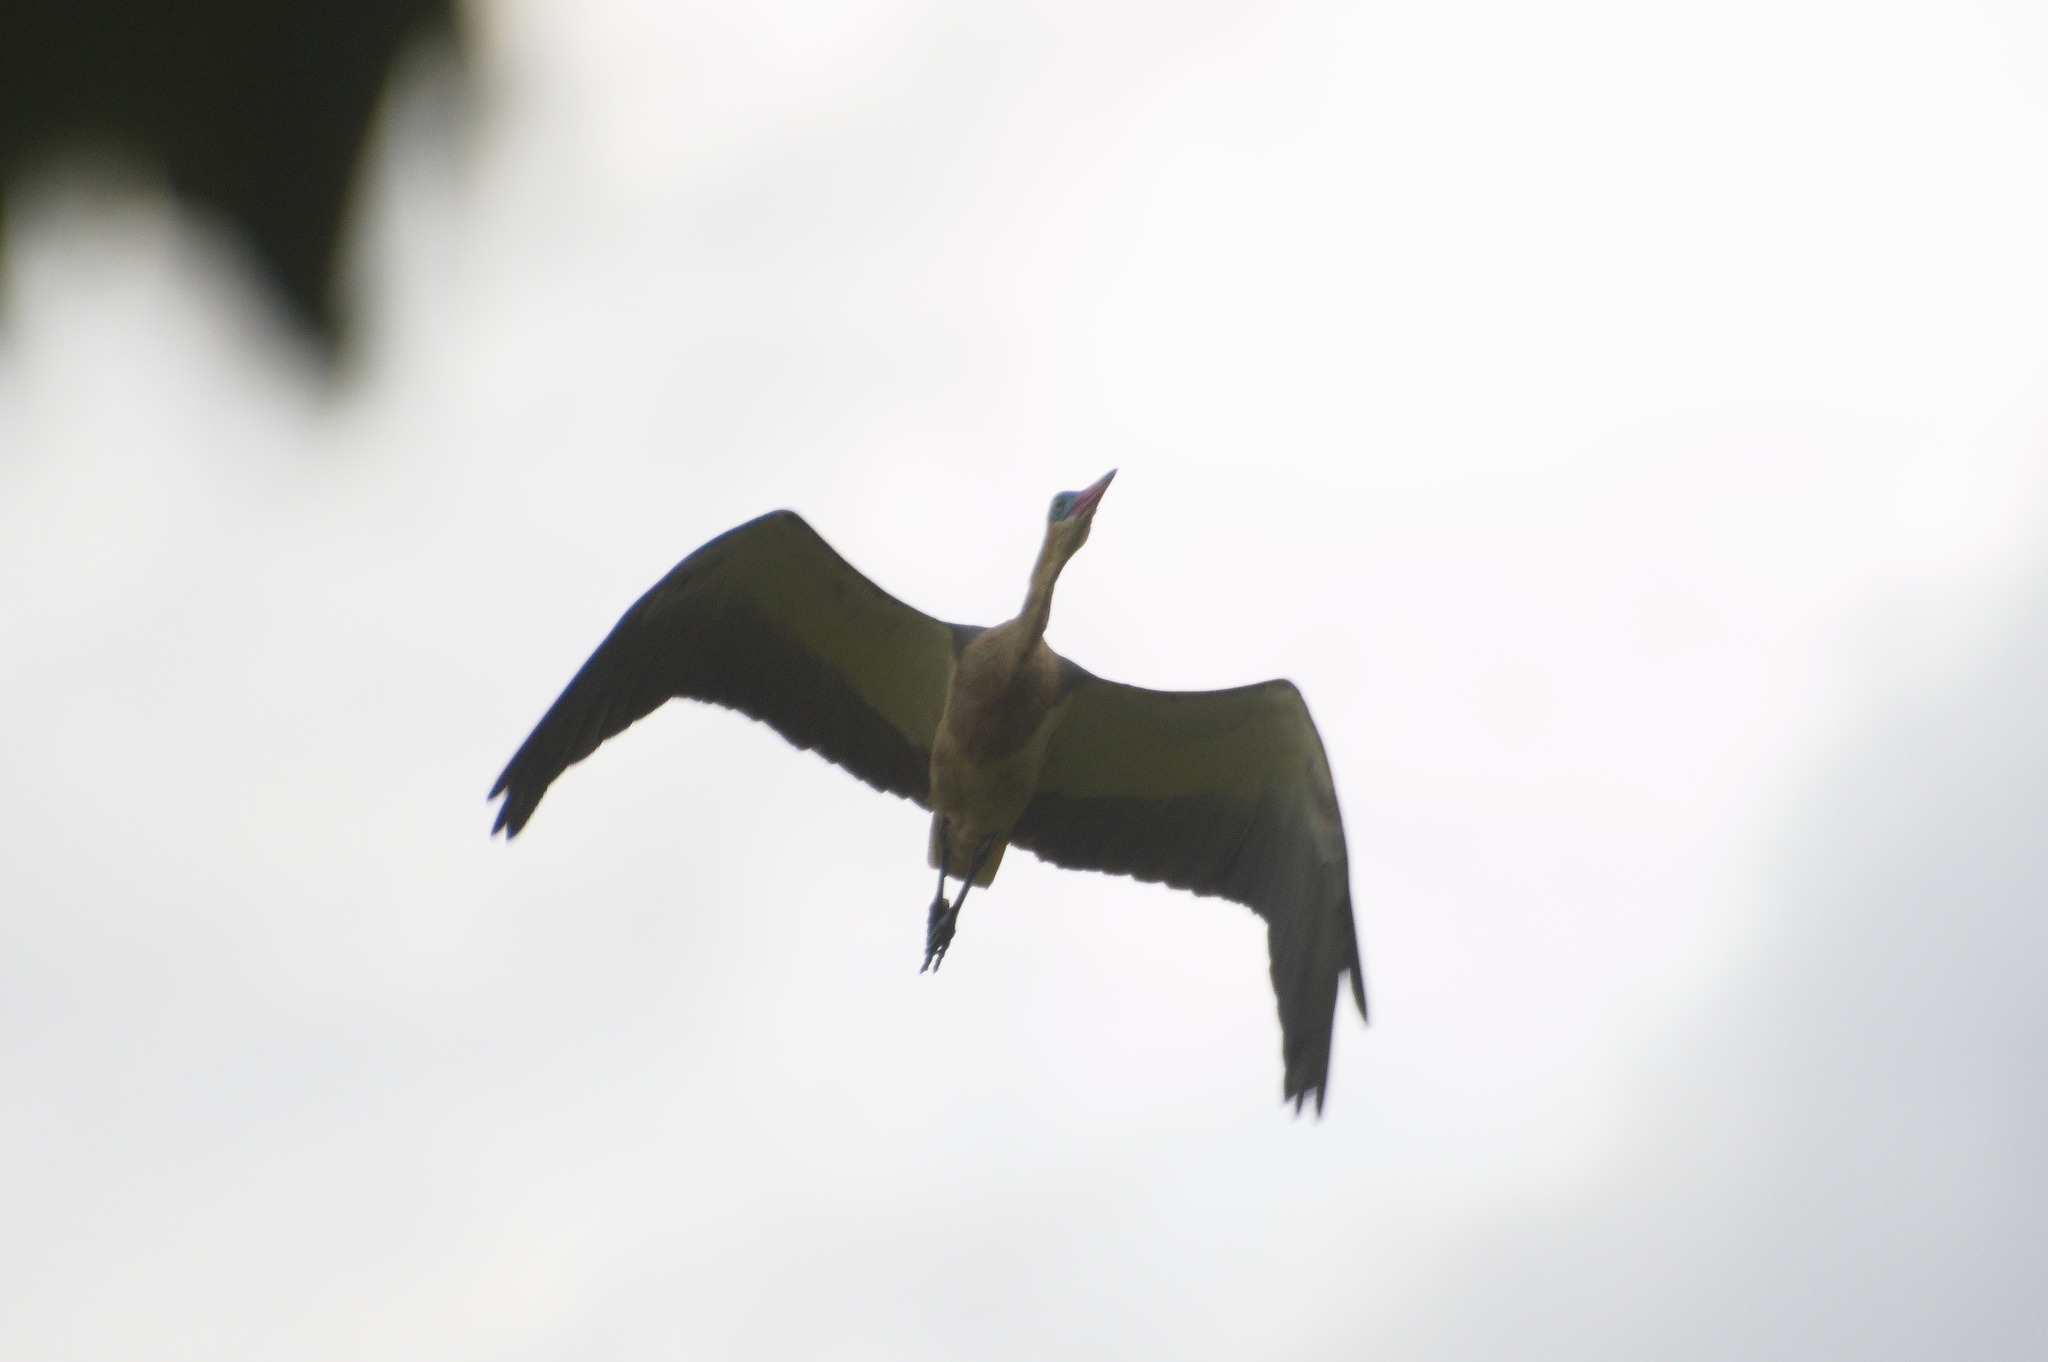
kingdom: Animalia
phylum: Chordata
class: Aves
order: Pelecaniformes
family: Ardeidae
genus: Syrigma
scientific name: Syrigma sibilatrix
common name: Whistling heron
